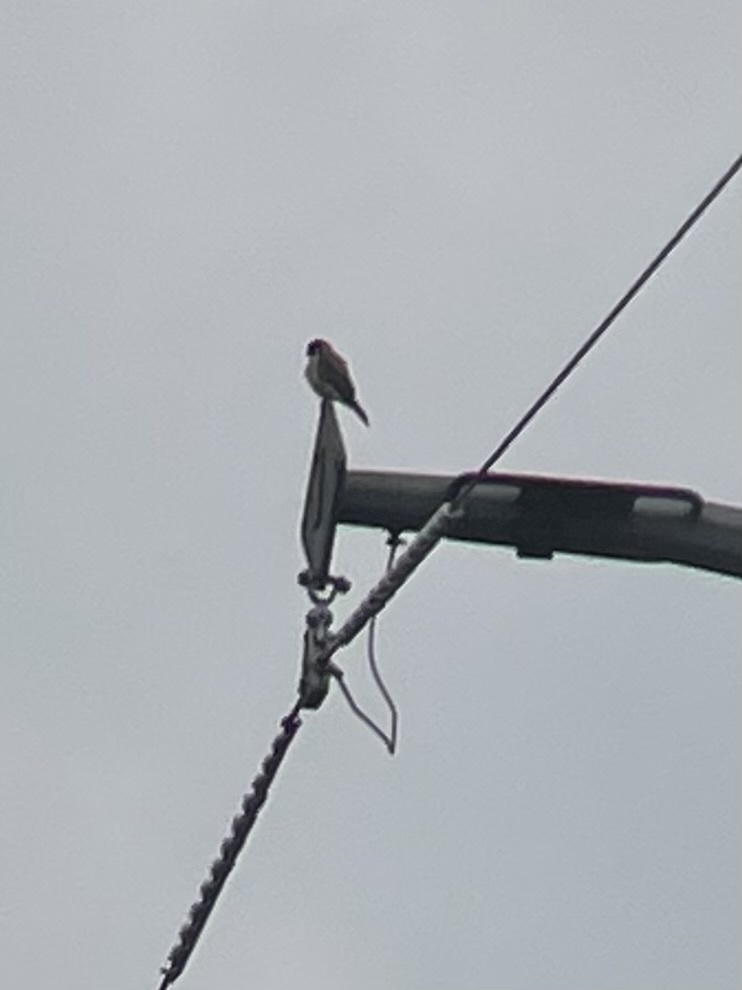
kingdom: Animalia
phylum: Chordata
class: Aves
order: Falconiformes
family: Falconidae
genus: Falco
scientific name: Falco sparverius
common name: American kestrel
